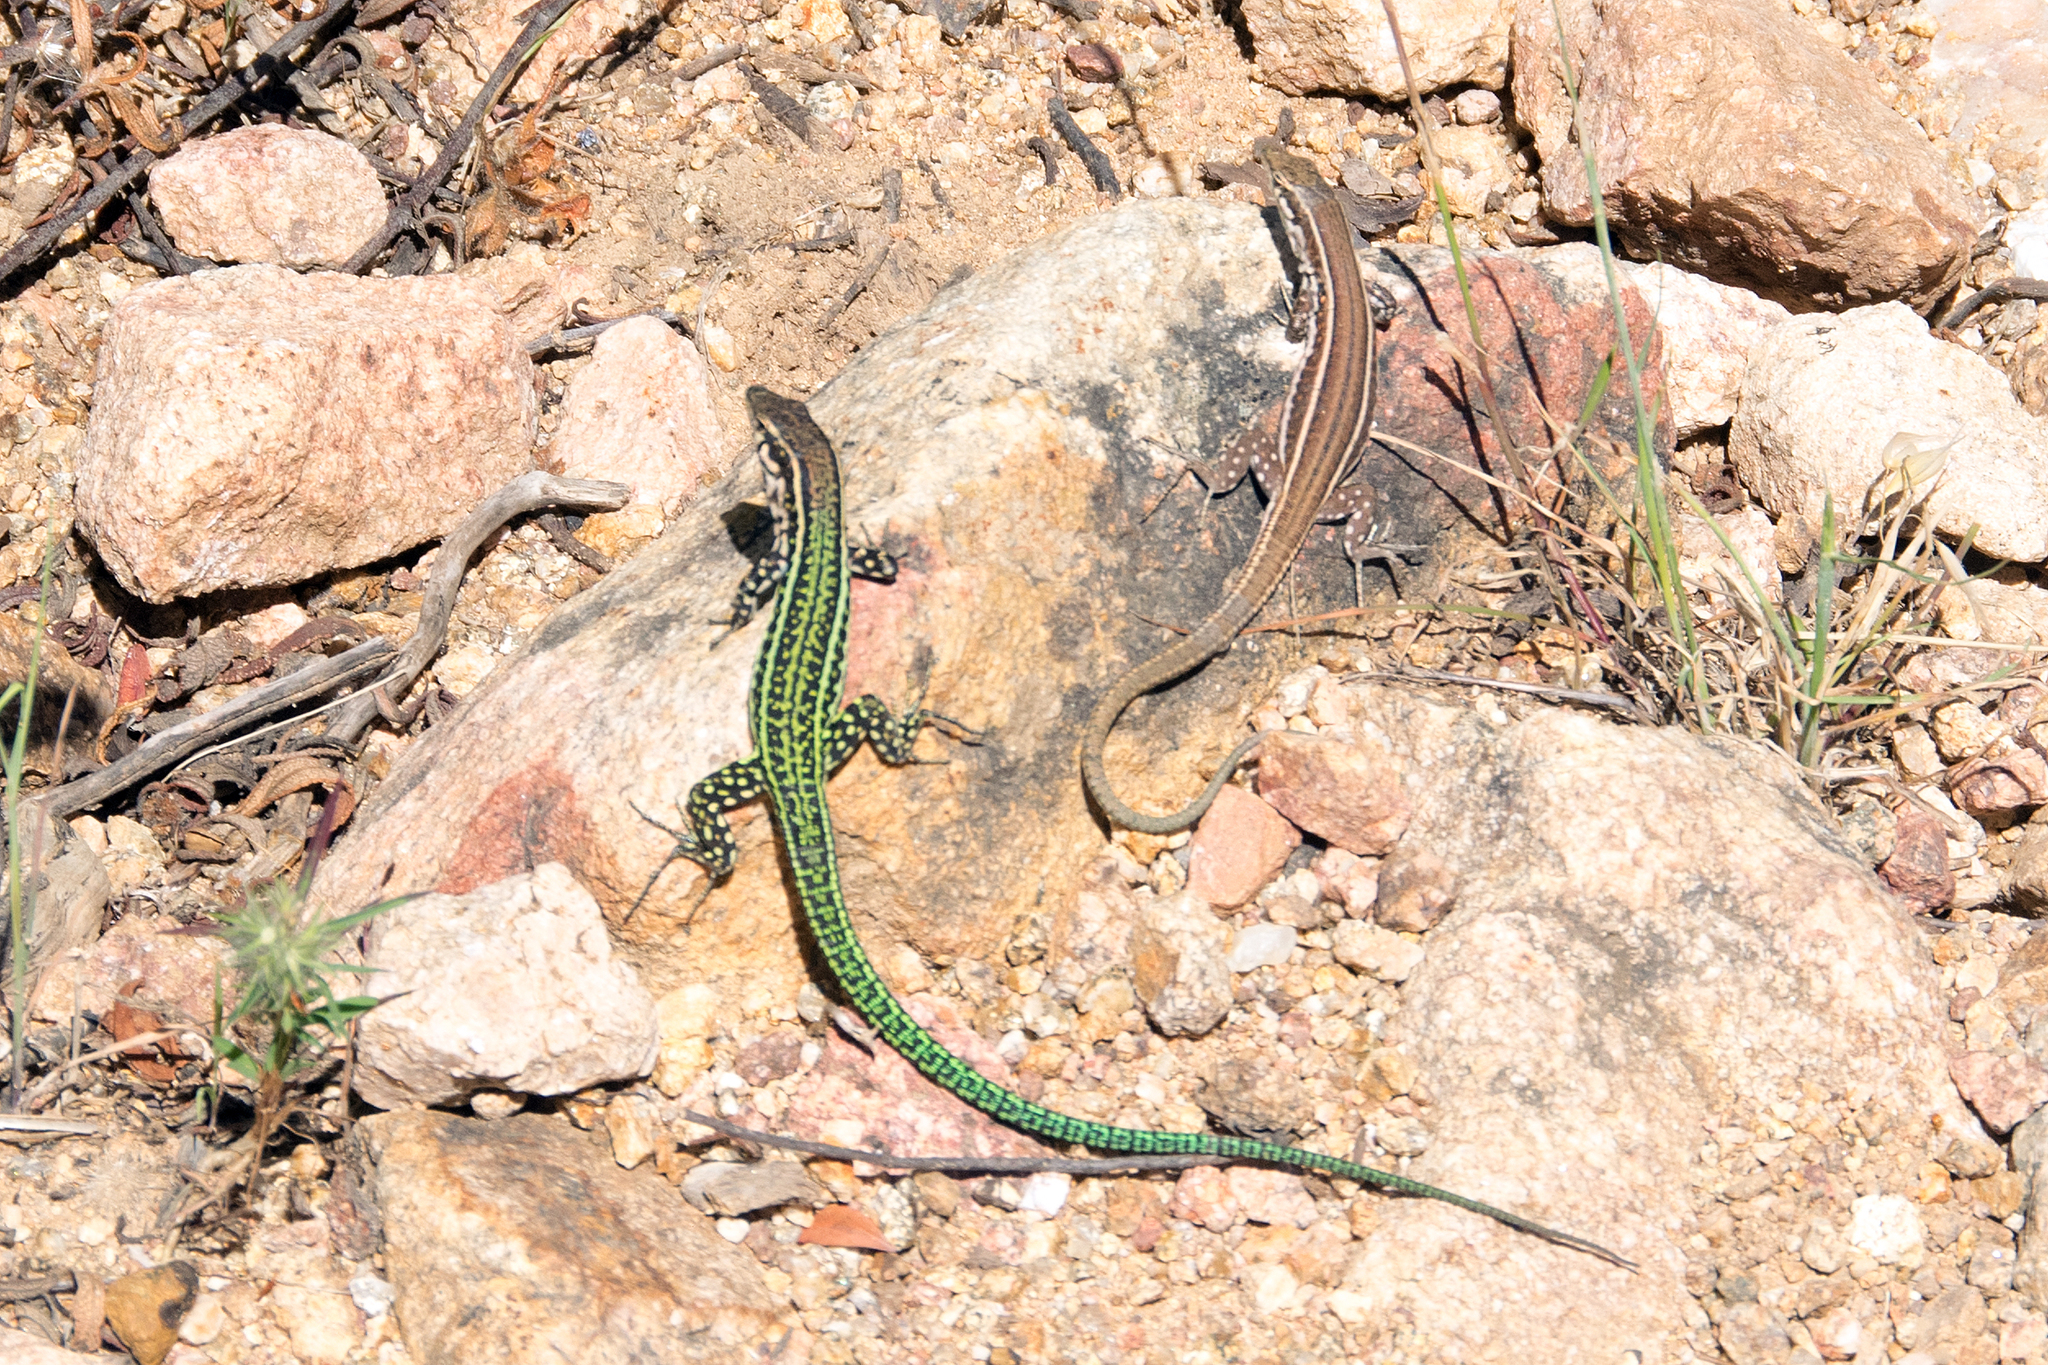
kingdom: Animalia
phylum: Chordata
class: Squamata
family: Lacertidae
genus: Podarcis
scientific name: Podarcis tiliguerta
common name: Tyrrhenian wall lizard
